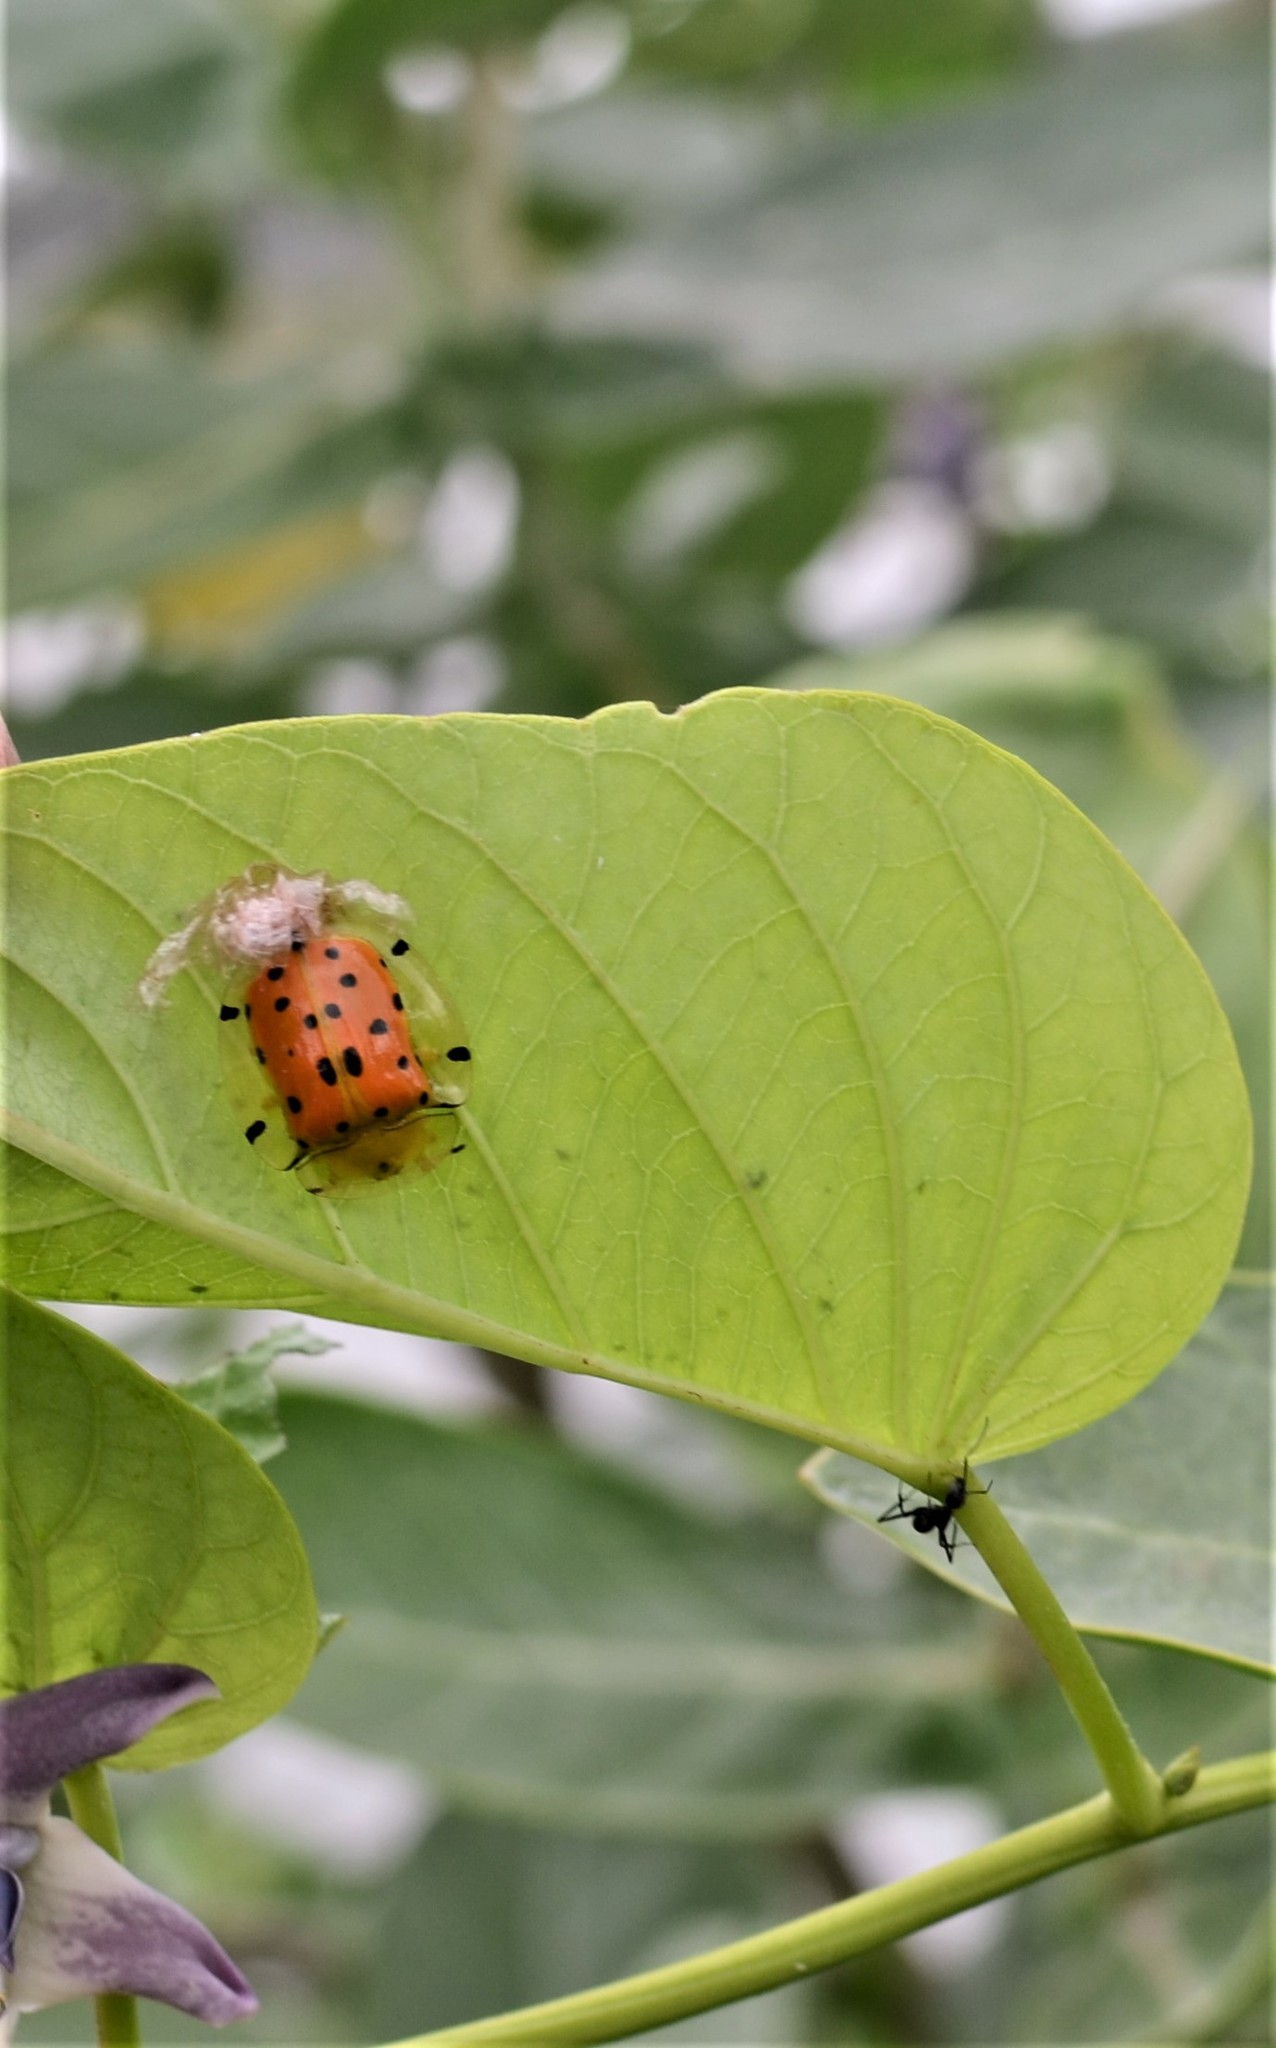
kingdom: Animalia
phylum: Arthropoda
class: Insecta
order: Coleoptera
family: Chrysomelidae
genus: Aspidimorpha
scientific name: Aspidimorpha miliaris
